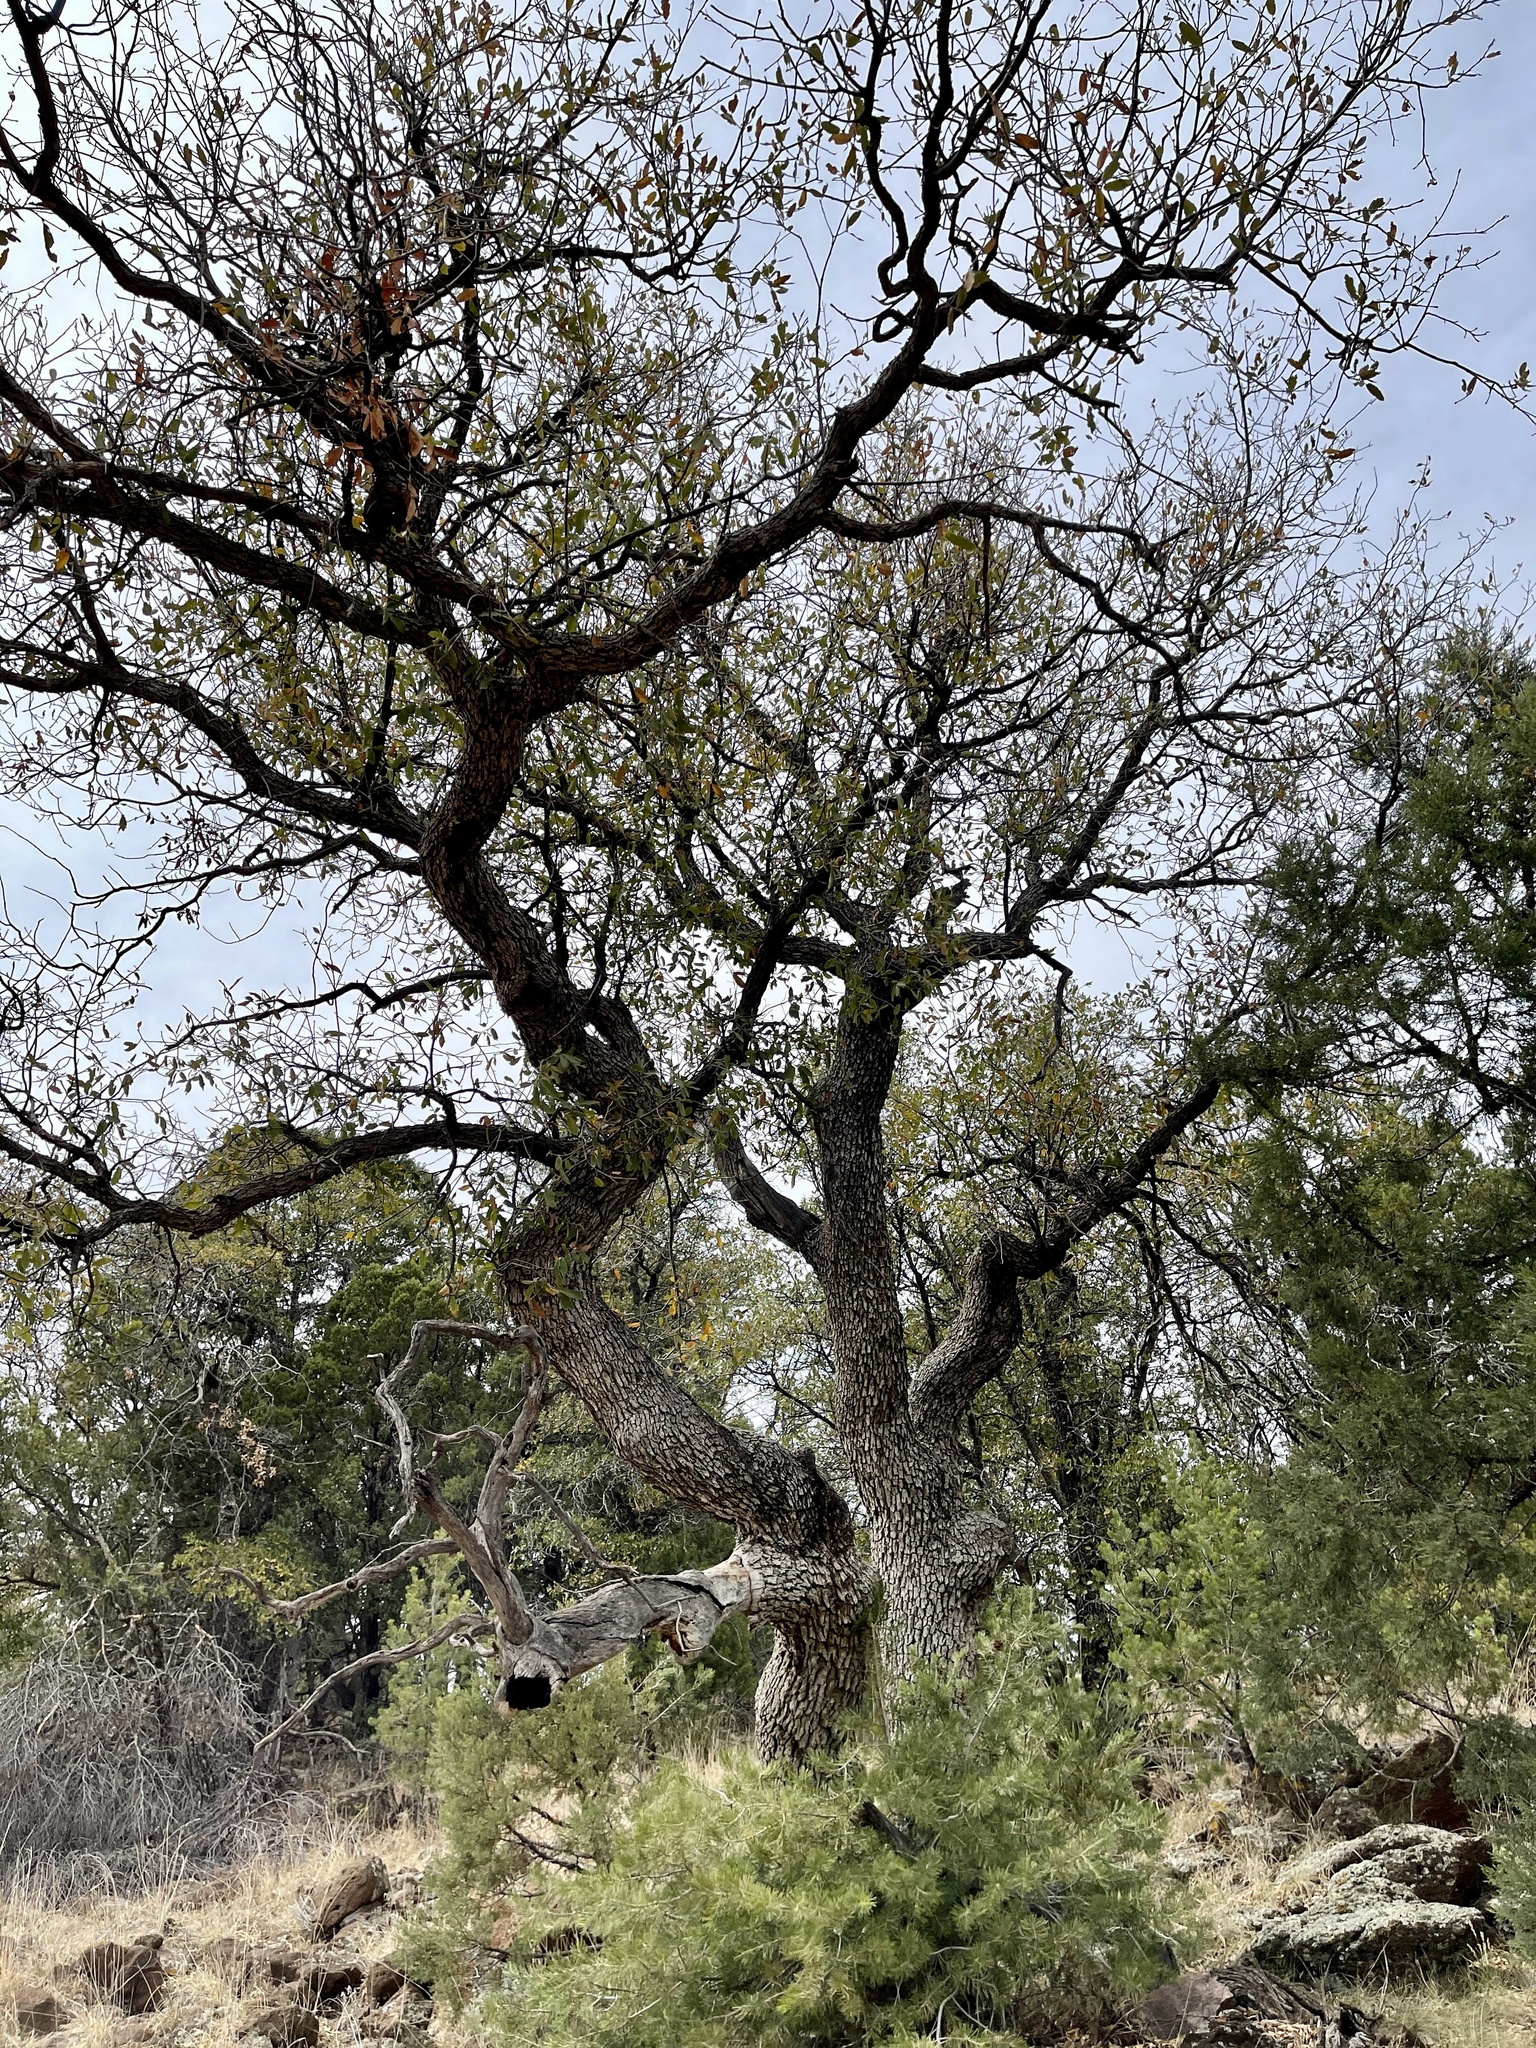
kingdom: Plantae
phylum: Tracheophyta
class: Magnoliopsida
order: Fagales
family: Fagaceae
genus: Quercus
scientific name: Quercus arizonica
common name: Arizona white oak
